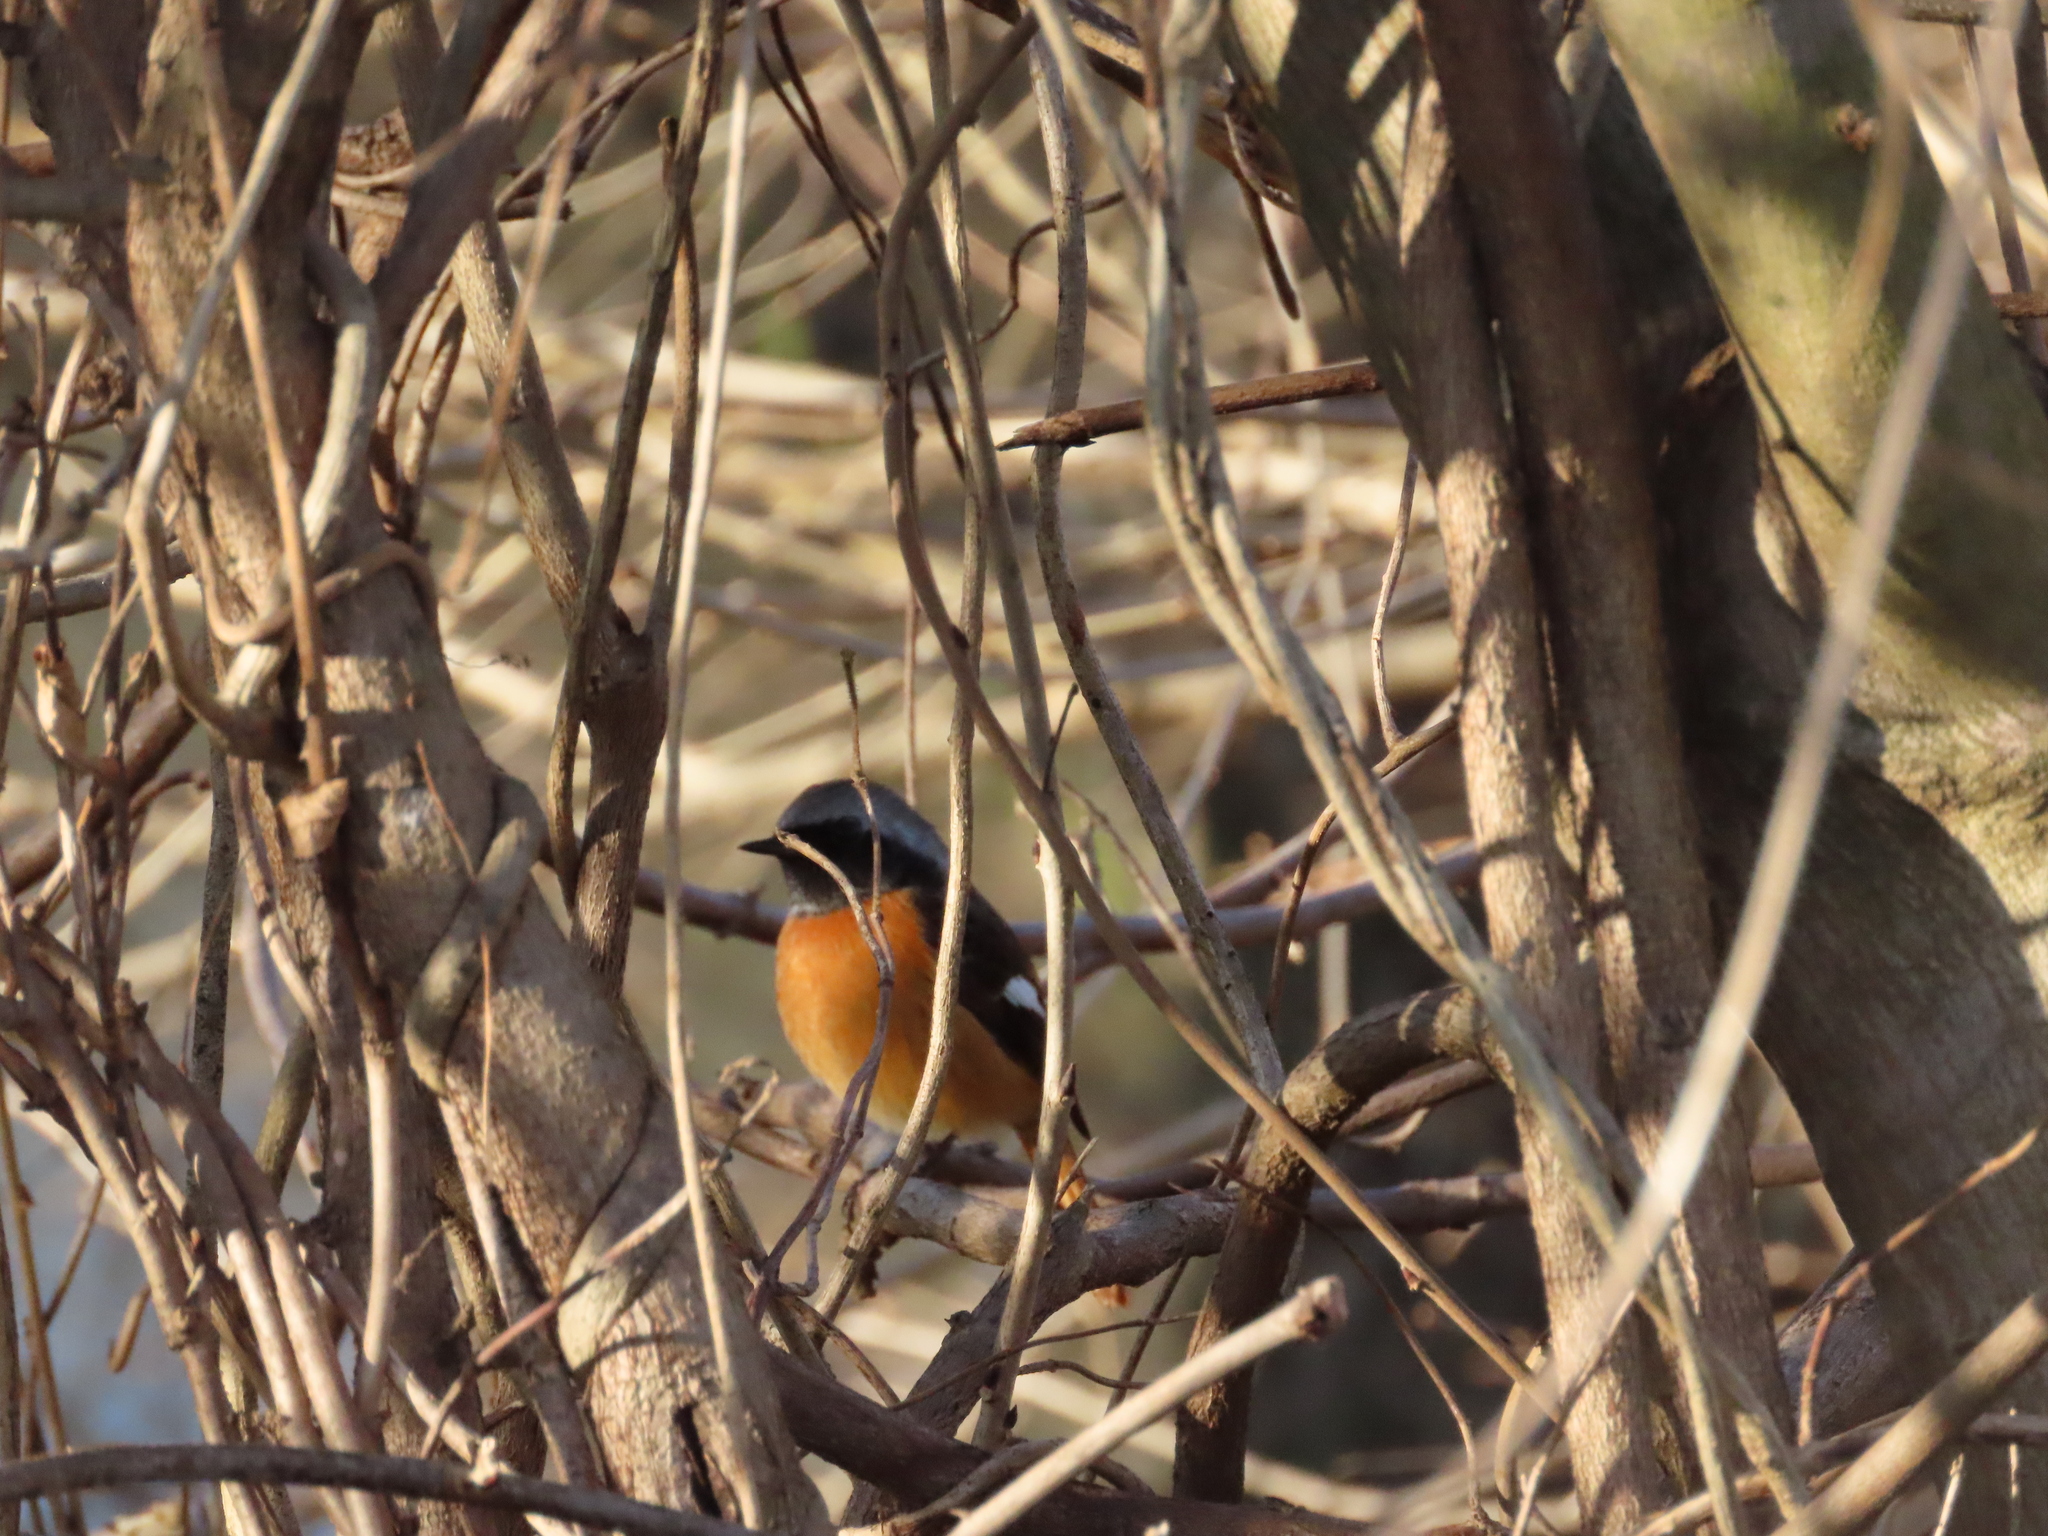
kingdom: Animalia
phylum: Chordata
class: Aves
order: Passeriformes
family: Muscicapidae
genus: Phoenicurus
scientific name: Phoenicurus auroreus
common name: Daurian redstart
